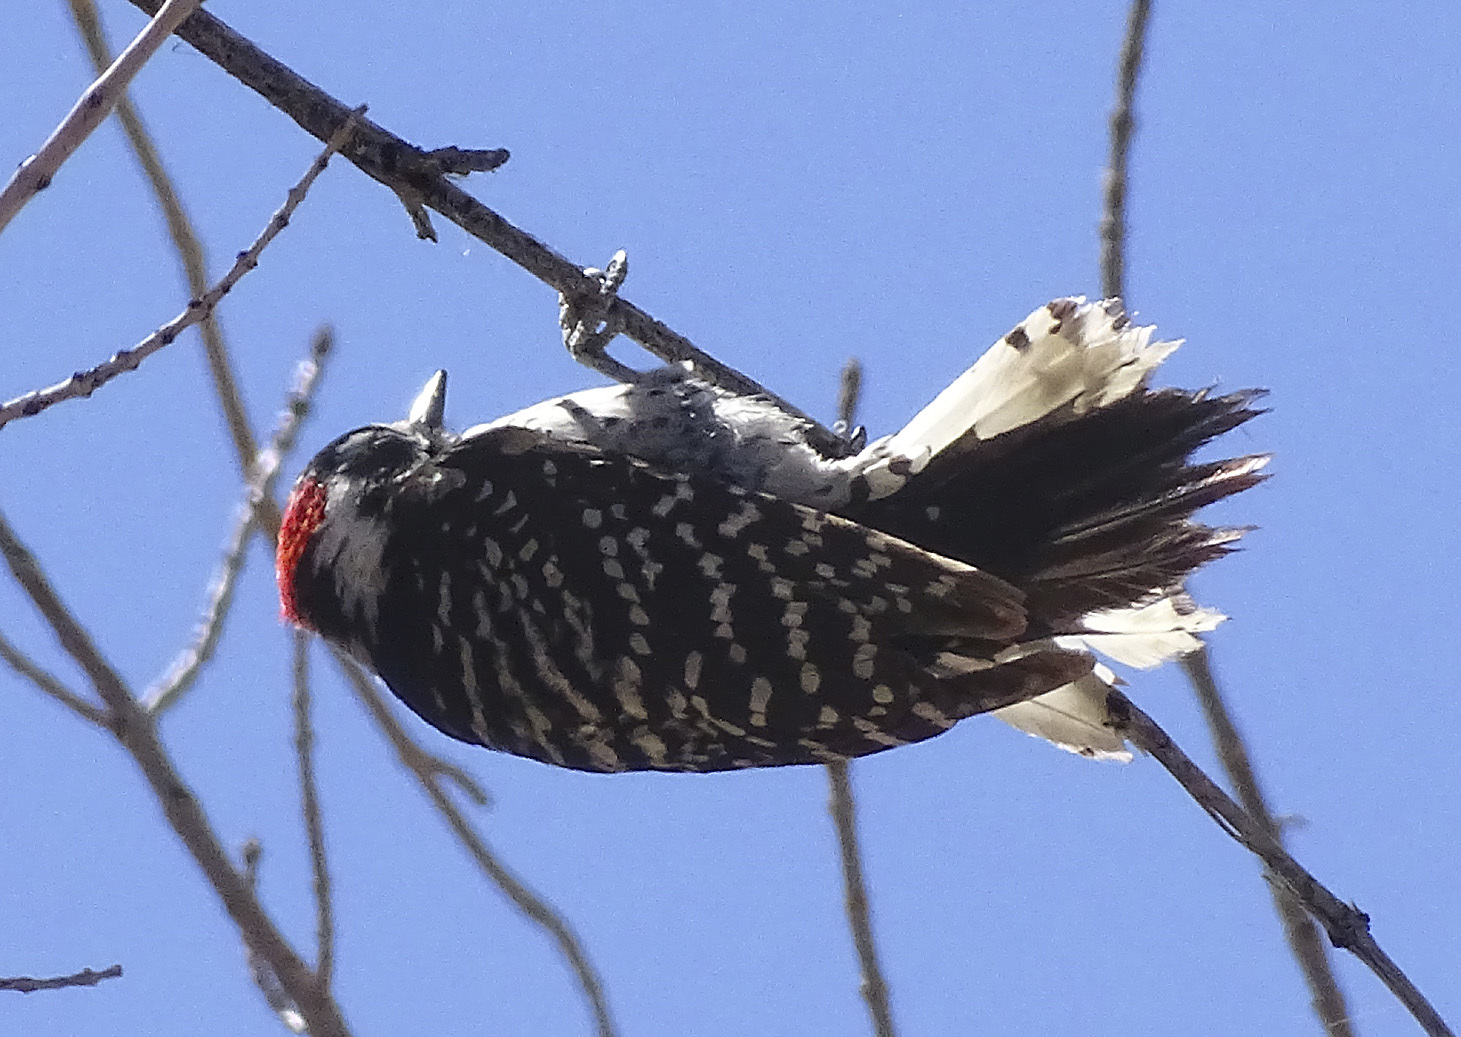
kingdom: Animalia
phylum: Chordata
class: Aves
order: Piciformes
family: Picidae
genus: Dryobates
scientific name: Dryobates nuttallii
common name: Nuttall's woodpecker
